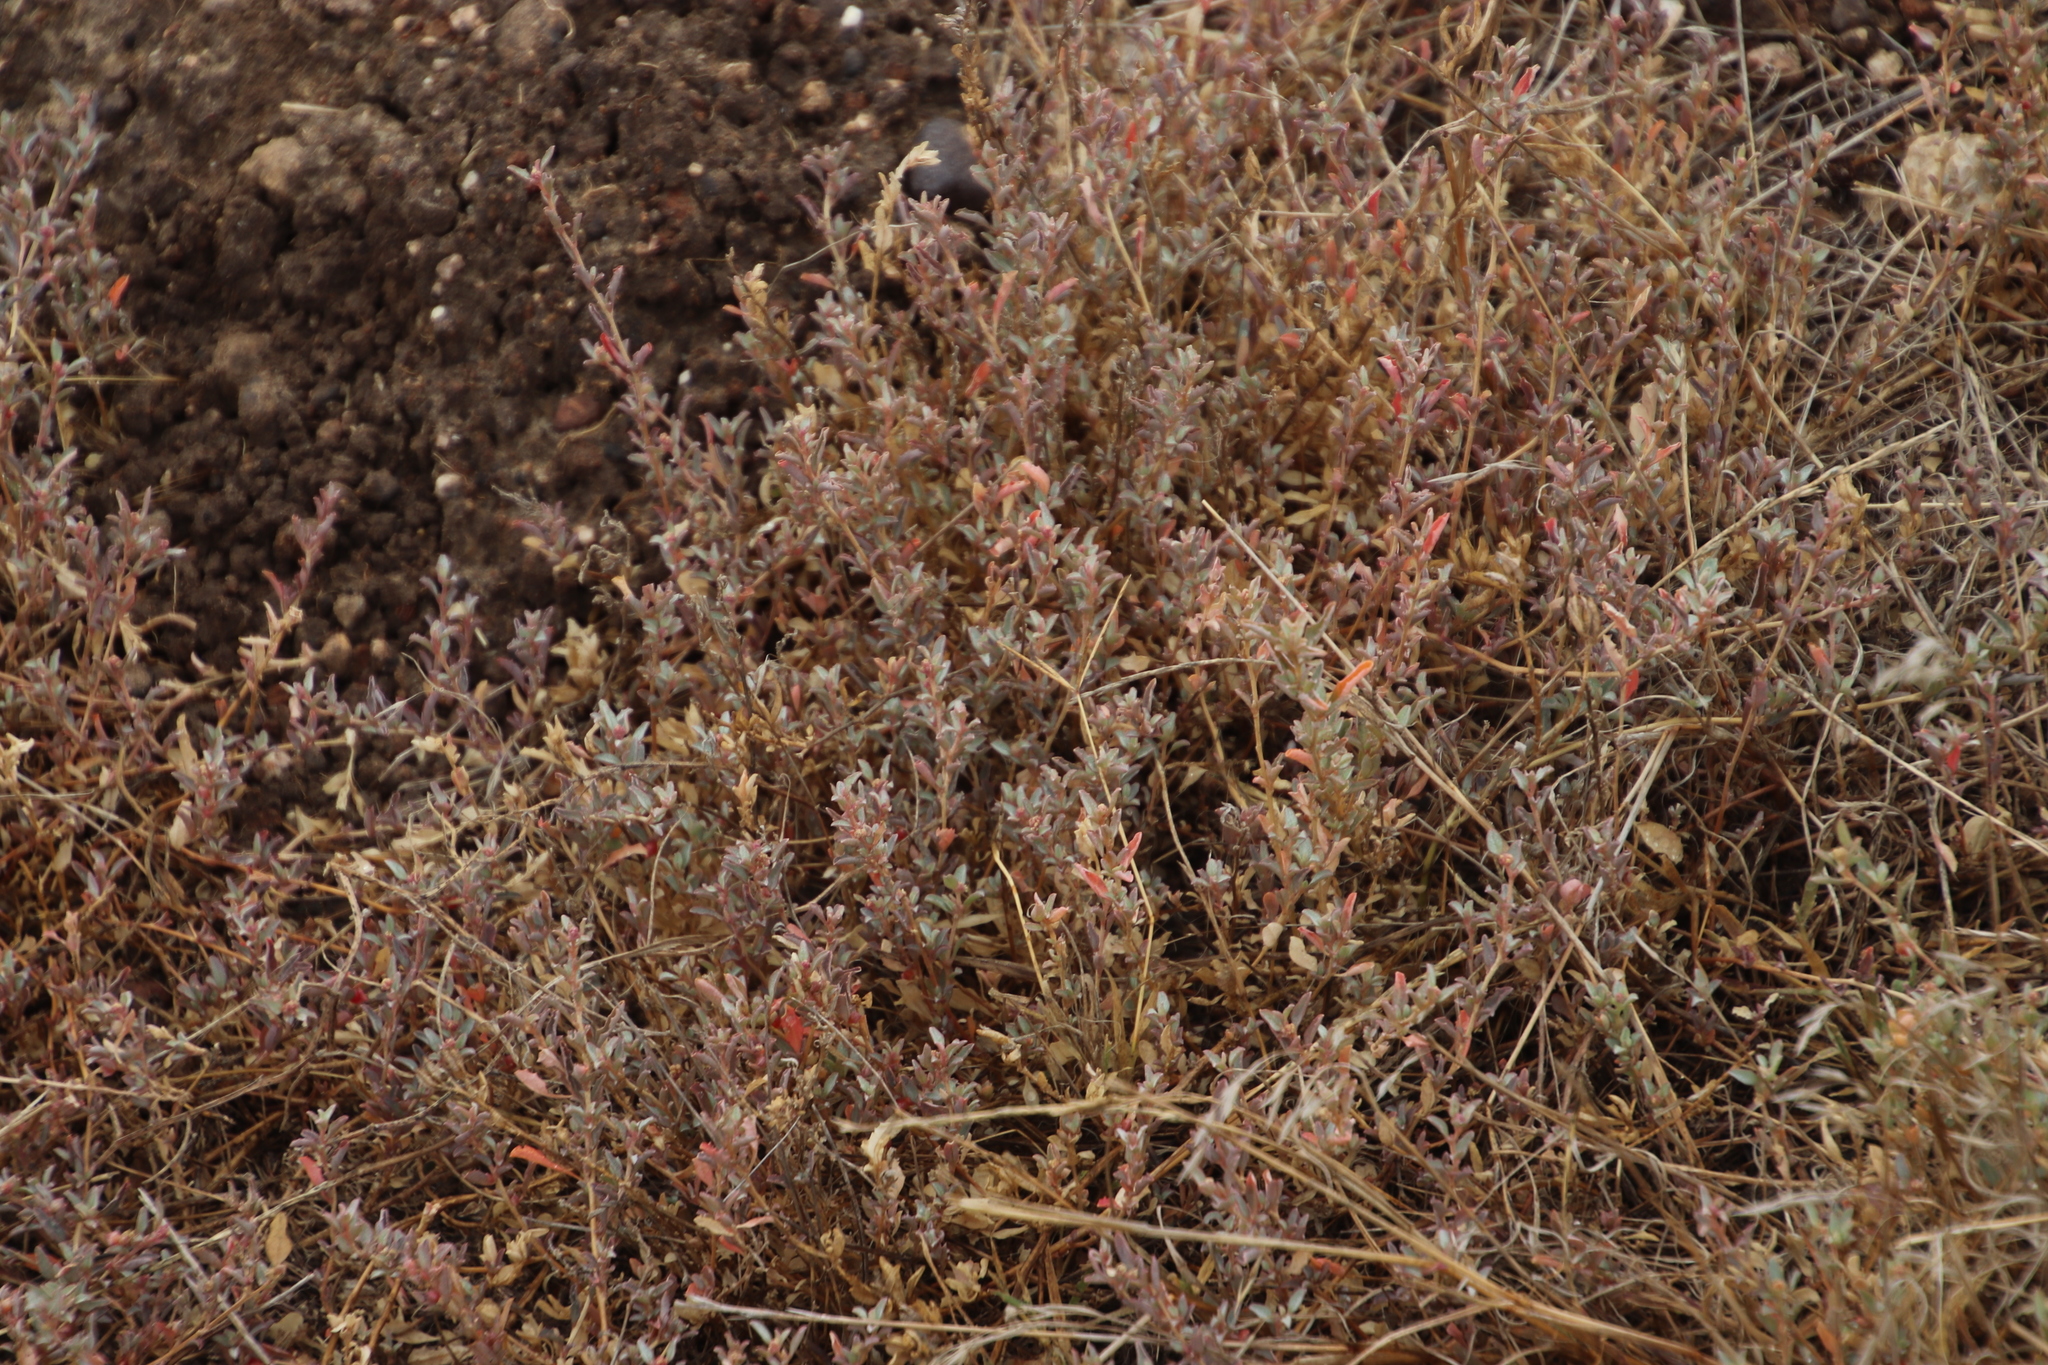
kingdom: Plantae
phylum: Tracheophyta
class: Magnoliopsida
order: Caryophyllales
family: Amaranthaceae
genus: Atriplex
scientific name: Atriplex semibaccata
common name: Australian saltbush
